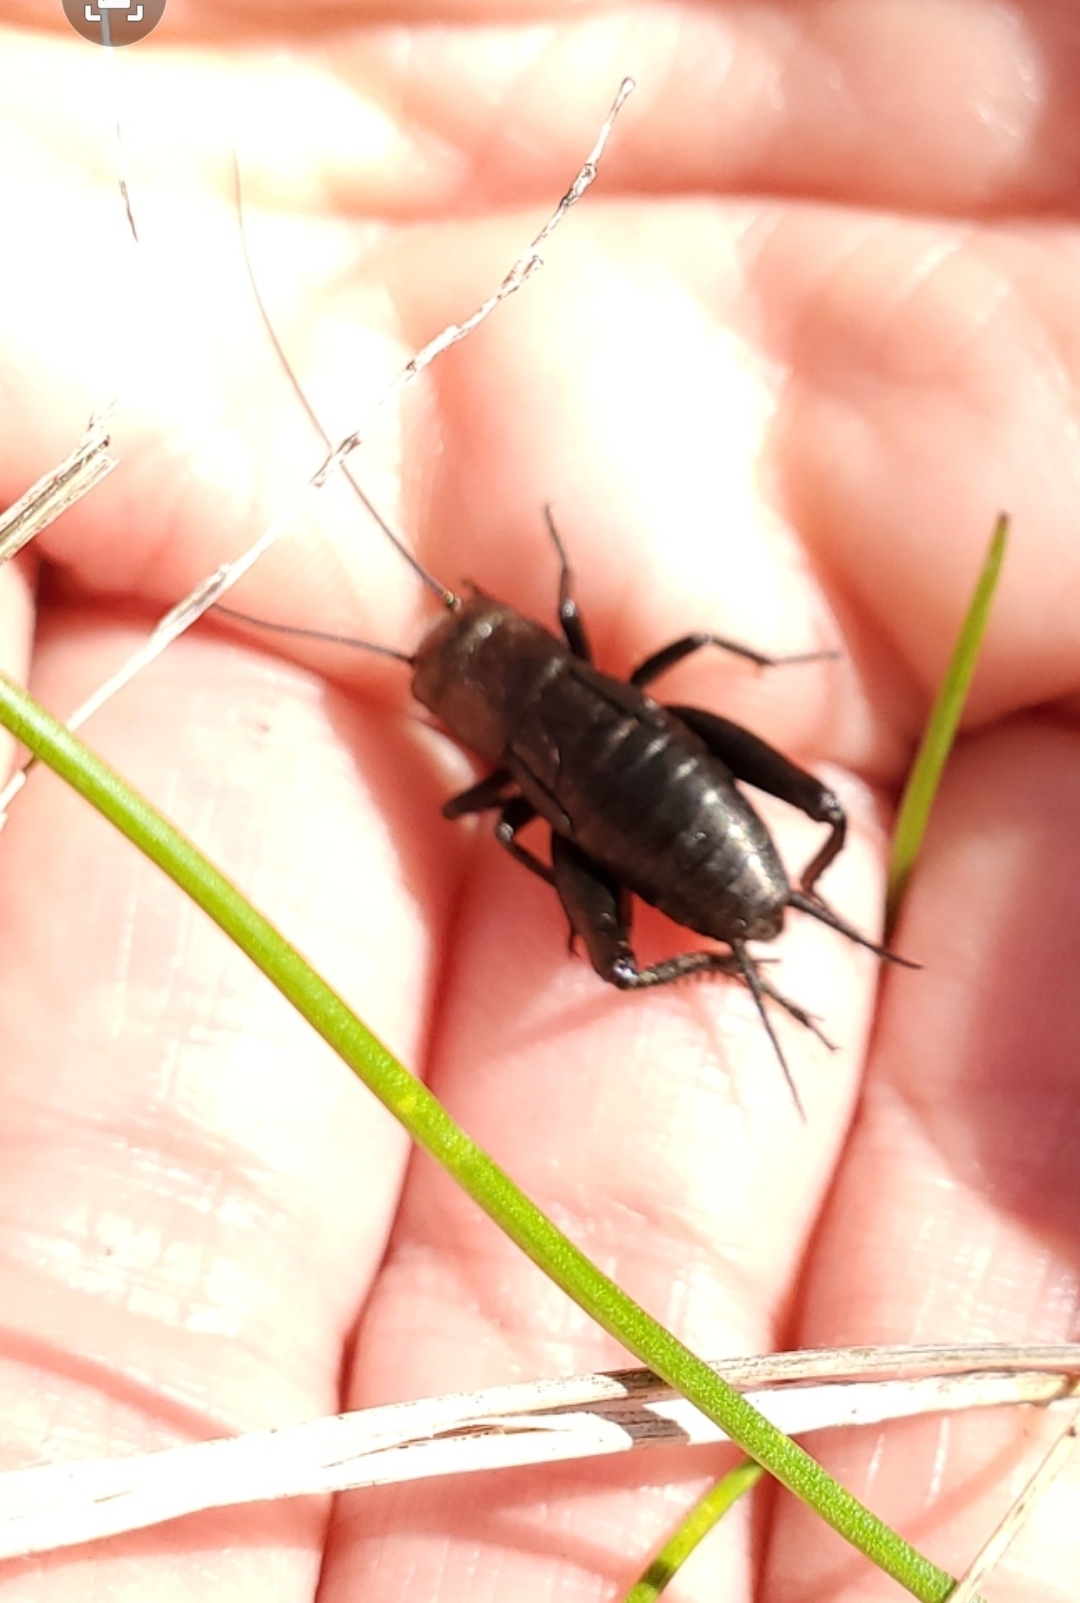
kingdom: Animalia
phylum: Arthropoda
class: Insecta
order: Orthoptera
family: Gryllidae
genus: Gryllus
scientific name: Gryllus veletis
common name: Spring field cricket
